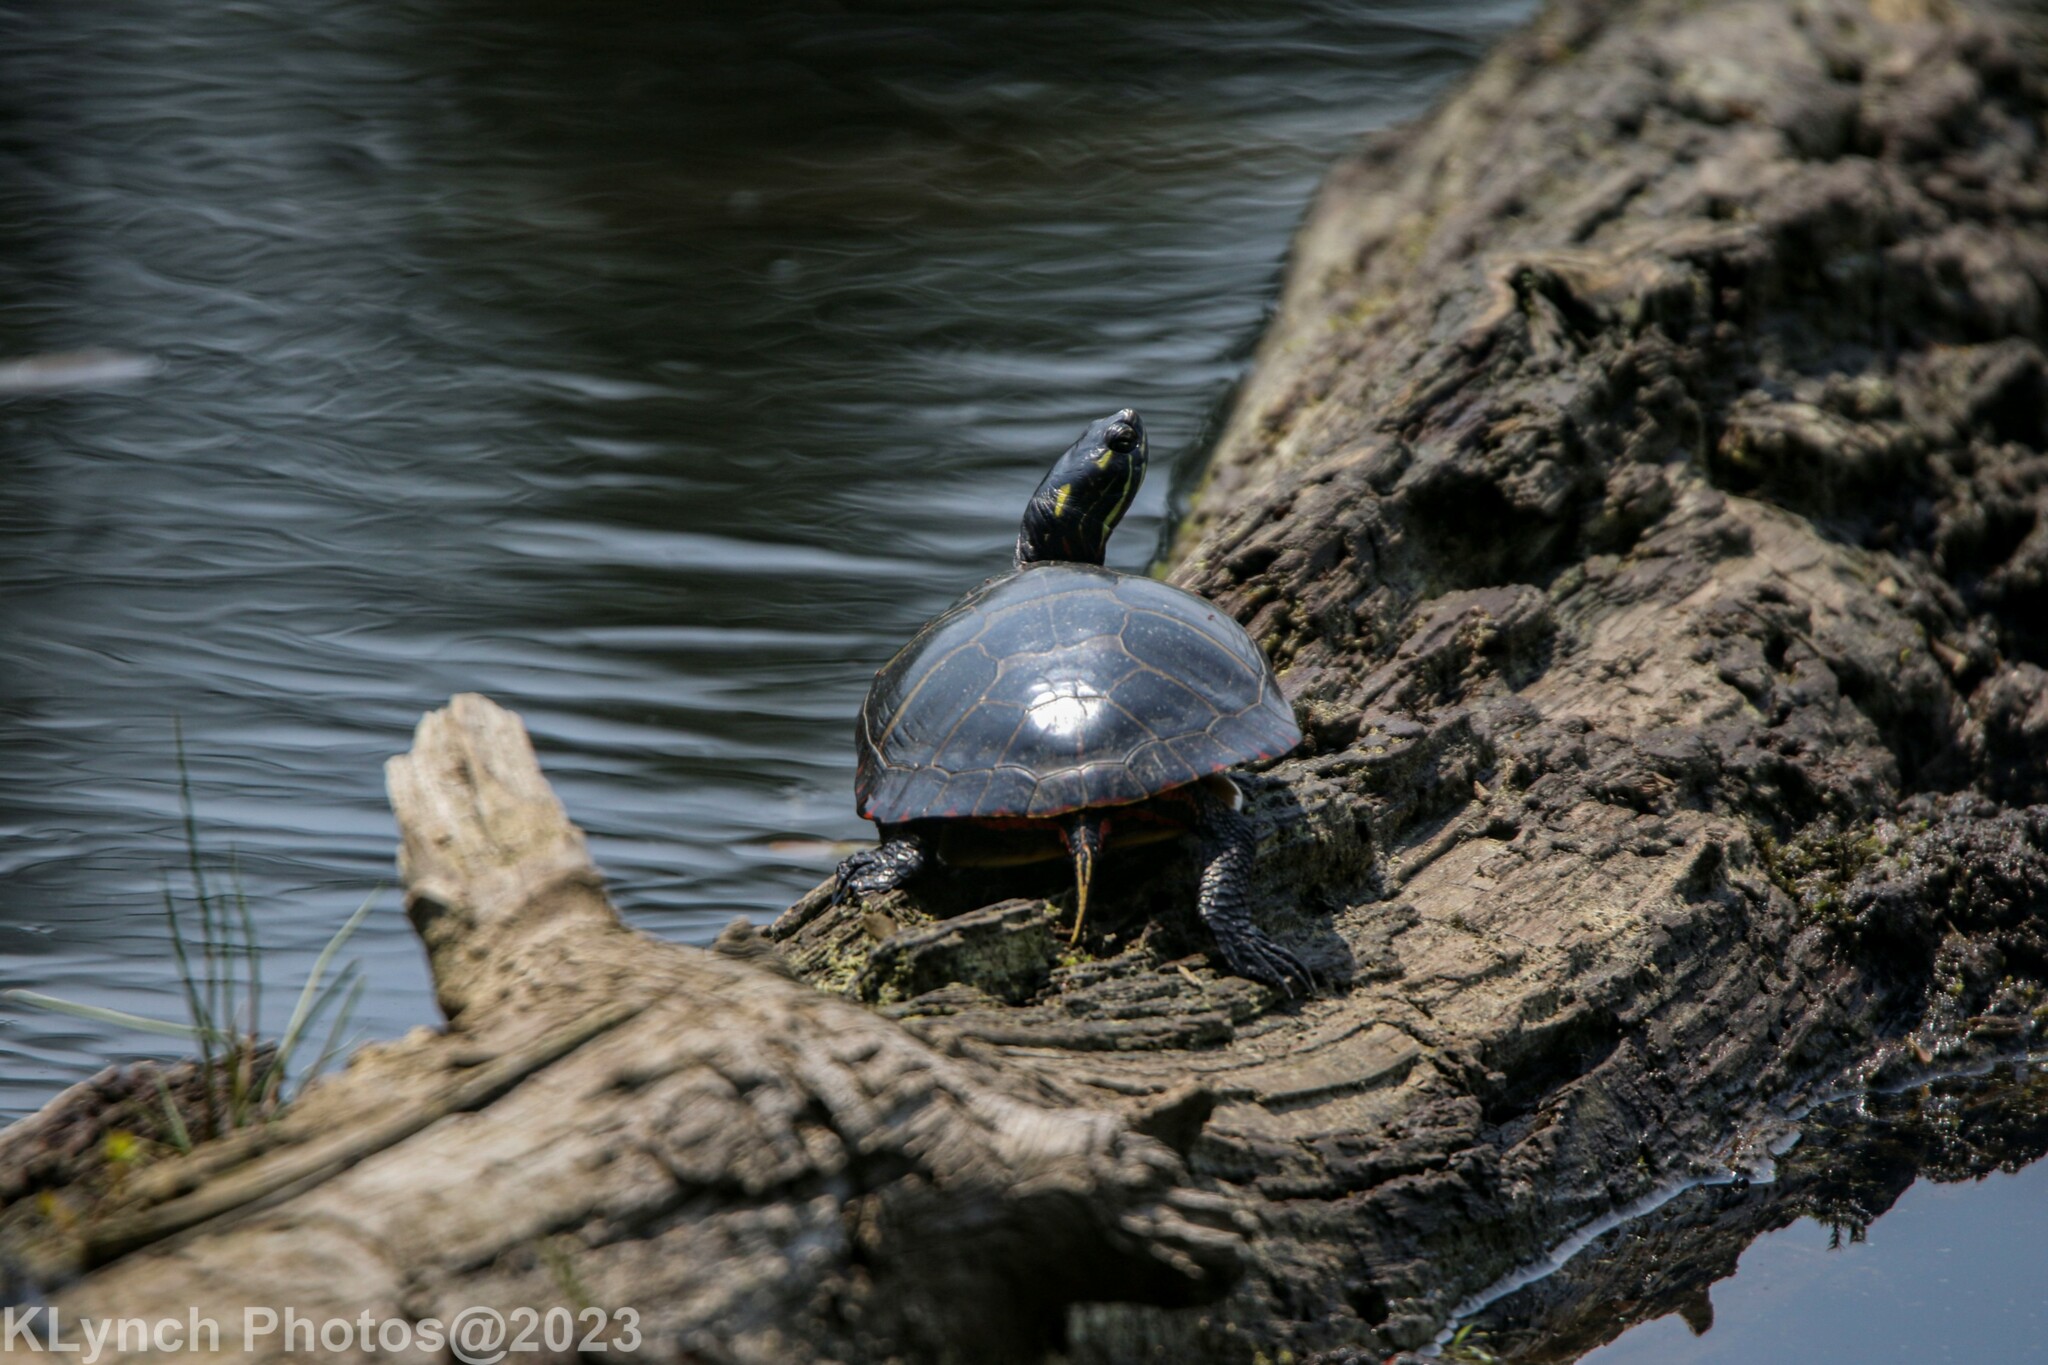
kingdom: Animalia
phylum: Chordata
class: Testudines
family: Emydidae
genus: Chrysemys
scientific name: Chrysemys picta
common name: Painted turtle
